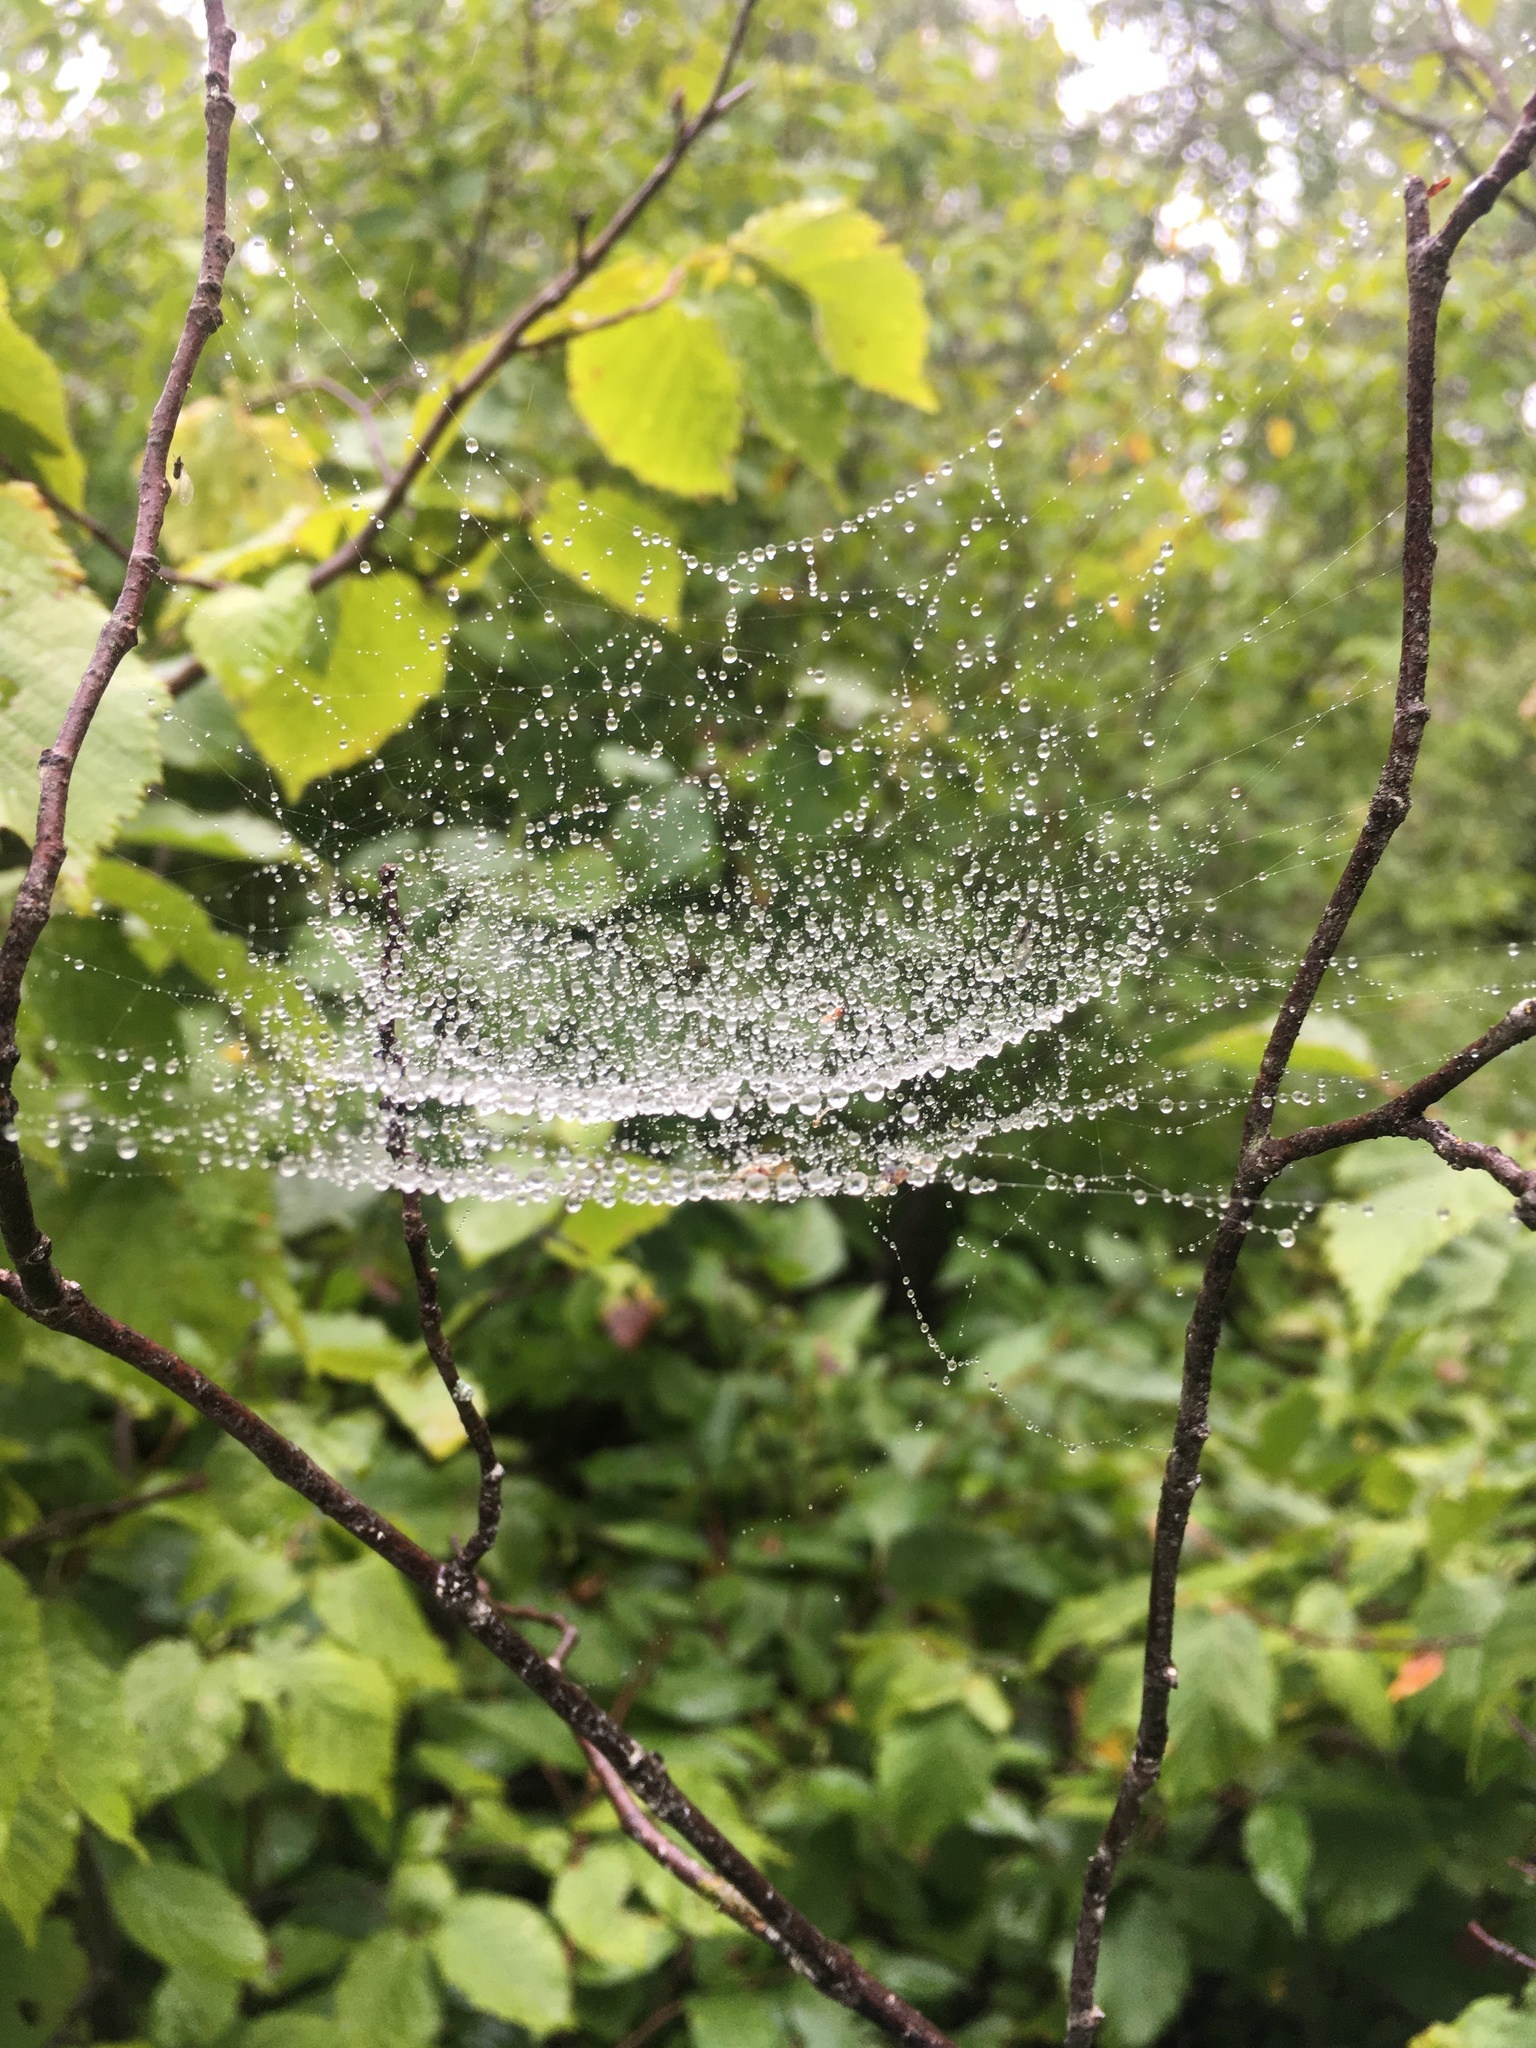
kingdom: Animalia
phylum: Arthropoda
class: Arachnida
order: Araneae
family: Linyphiidae
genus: Frontinella
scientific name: Frontinella pyramitela
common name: Bowl-and-doily spider
